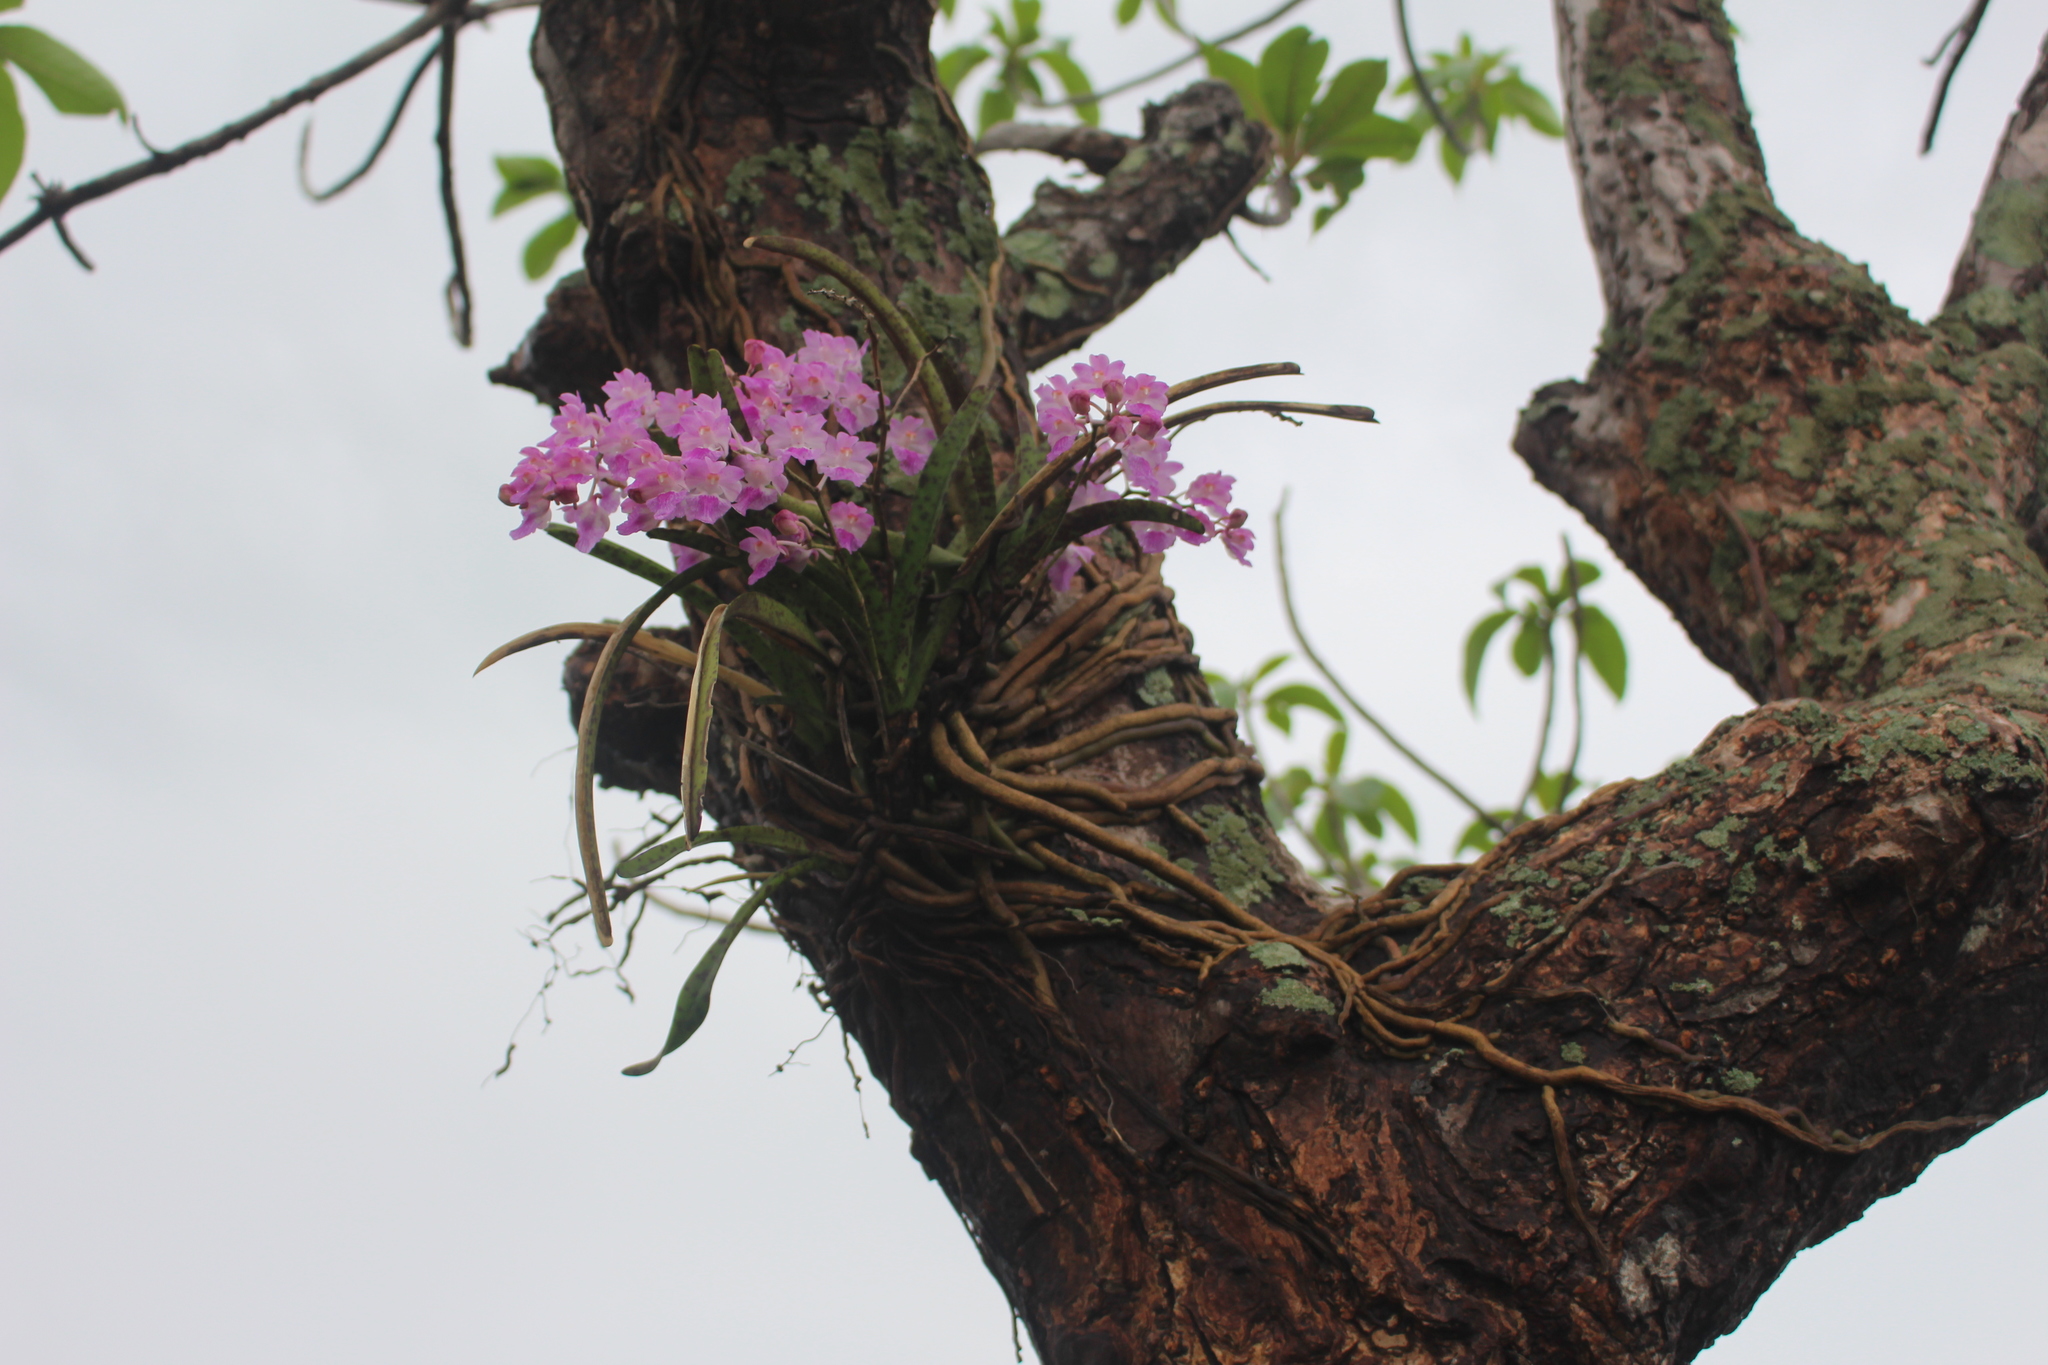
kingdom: Plantae
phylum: Tracheophyta
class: Liliopsida
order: Asparagales
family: Orchidaceae
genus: Aerides
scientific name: Aerides maculosa
